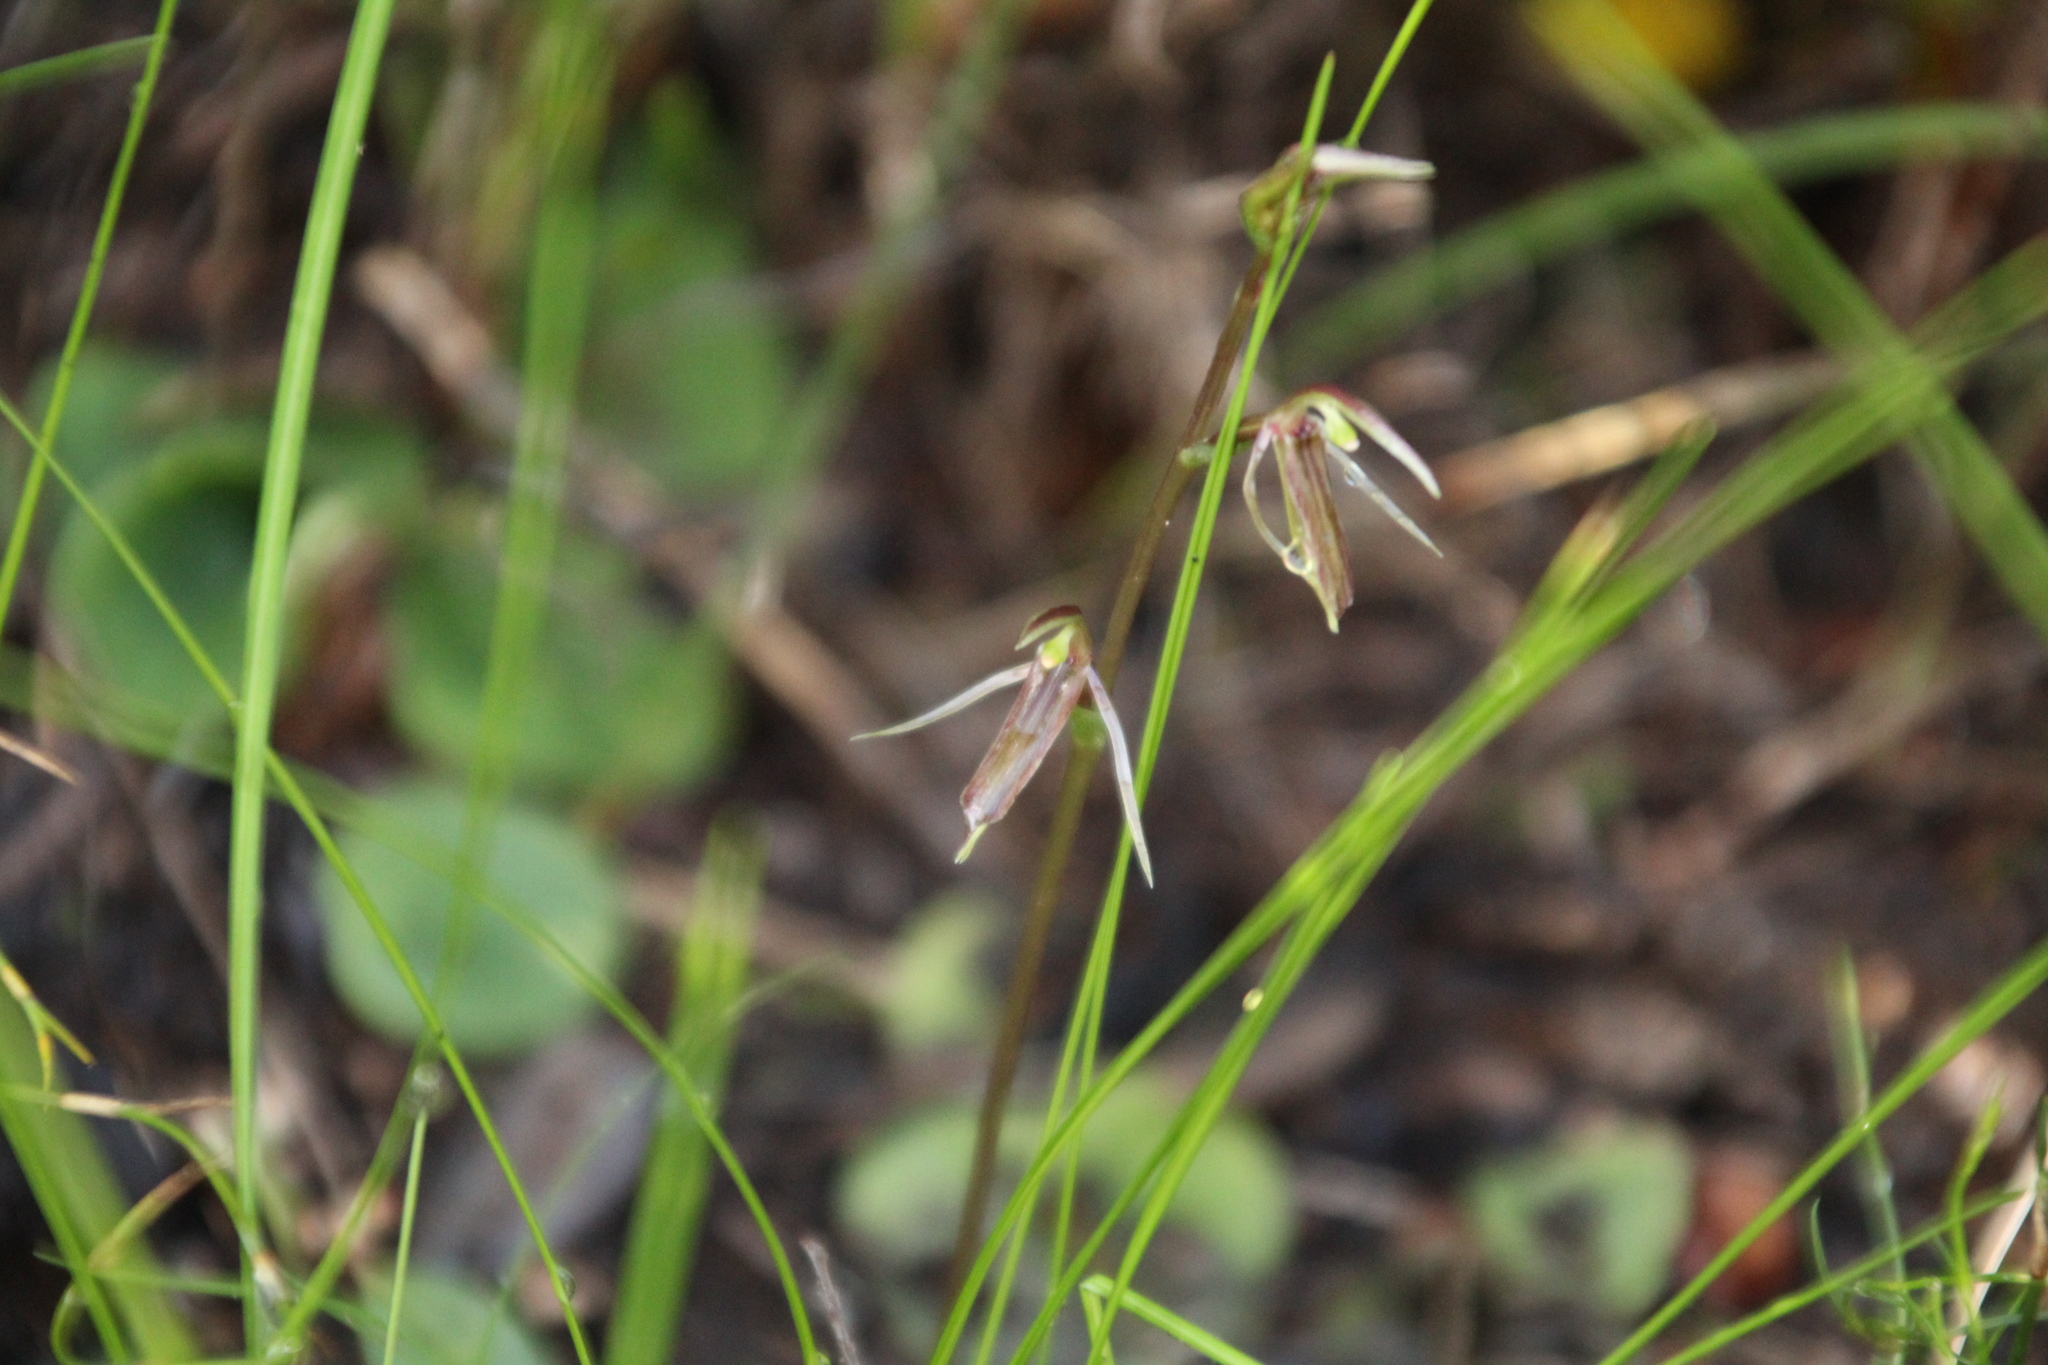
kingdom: Plantae
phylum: Tracheophyta
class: Liliopsida
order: Asparagales
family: Orchidaceae
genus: Cyrtostylis
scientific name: Cyrtostylis huegelii
